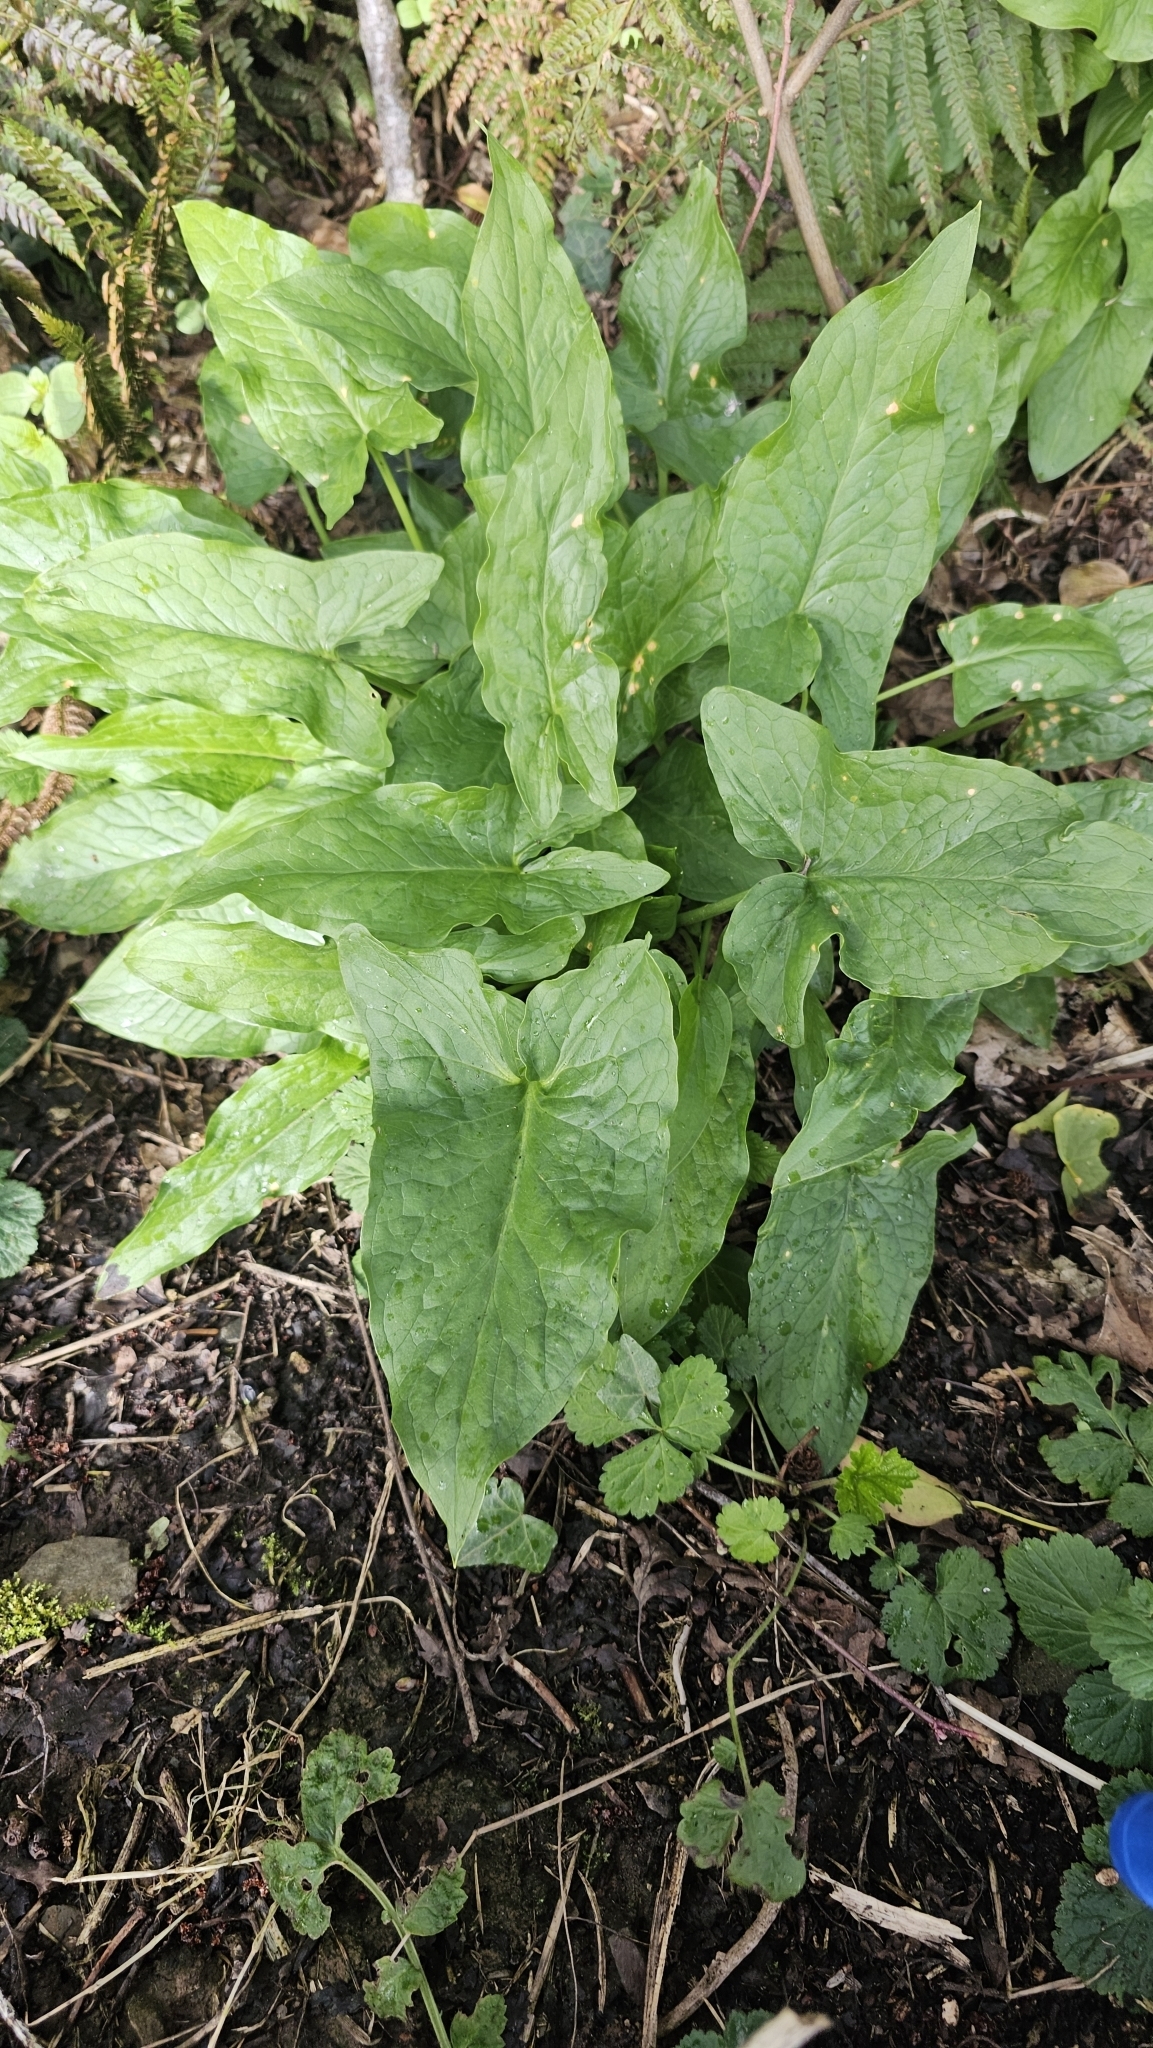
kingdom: Plantae
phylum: Tracheophyta
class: Liliopsida
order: Alismatales
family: Araceae
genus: Arum
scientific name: Arum maculatum
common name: Lords-and-ladies
